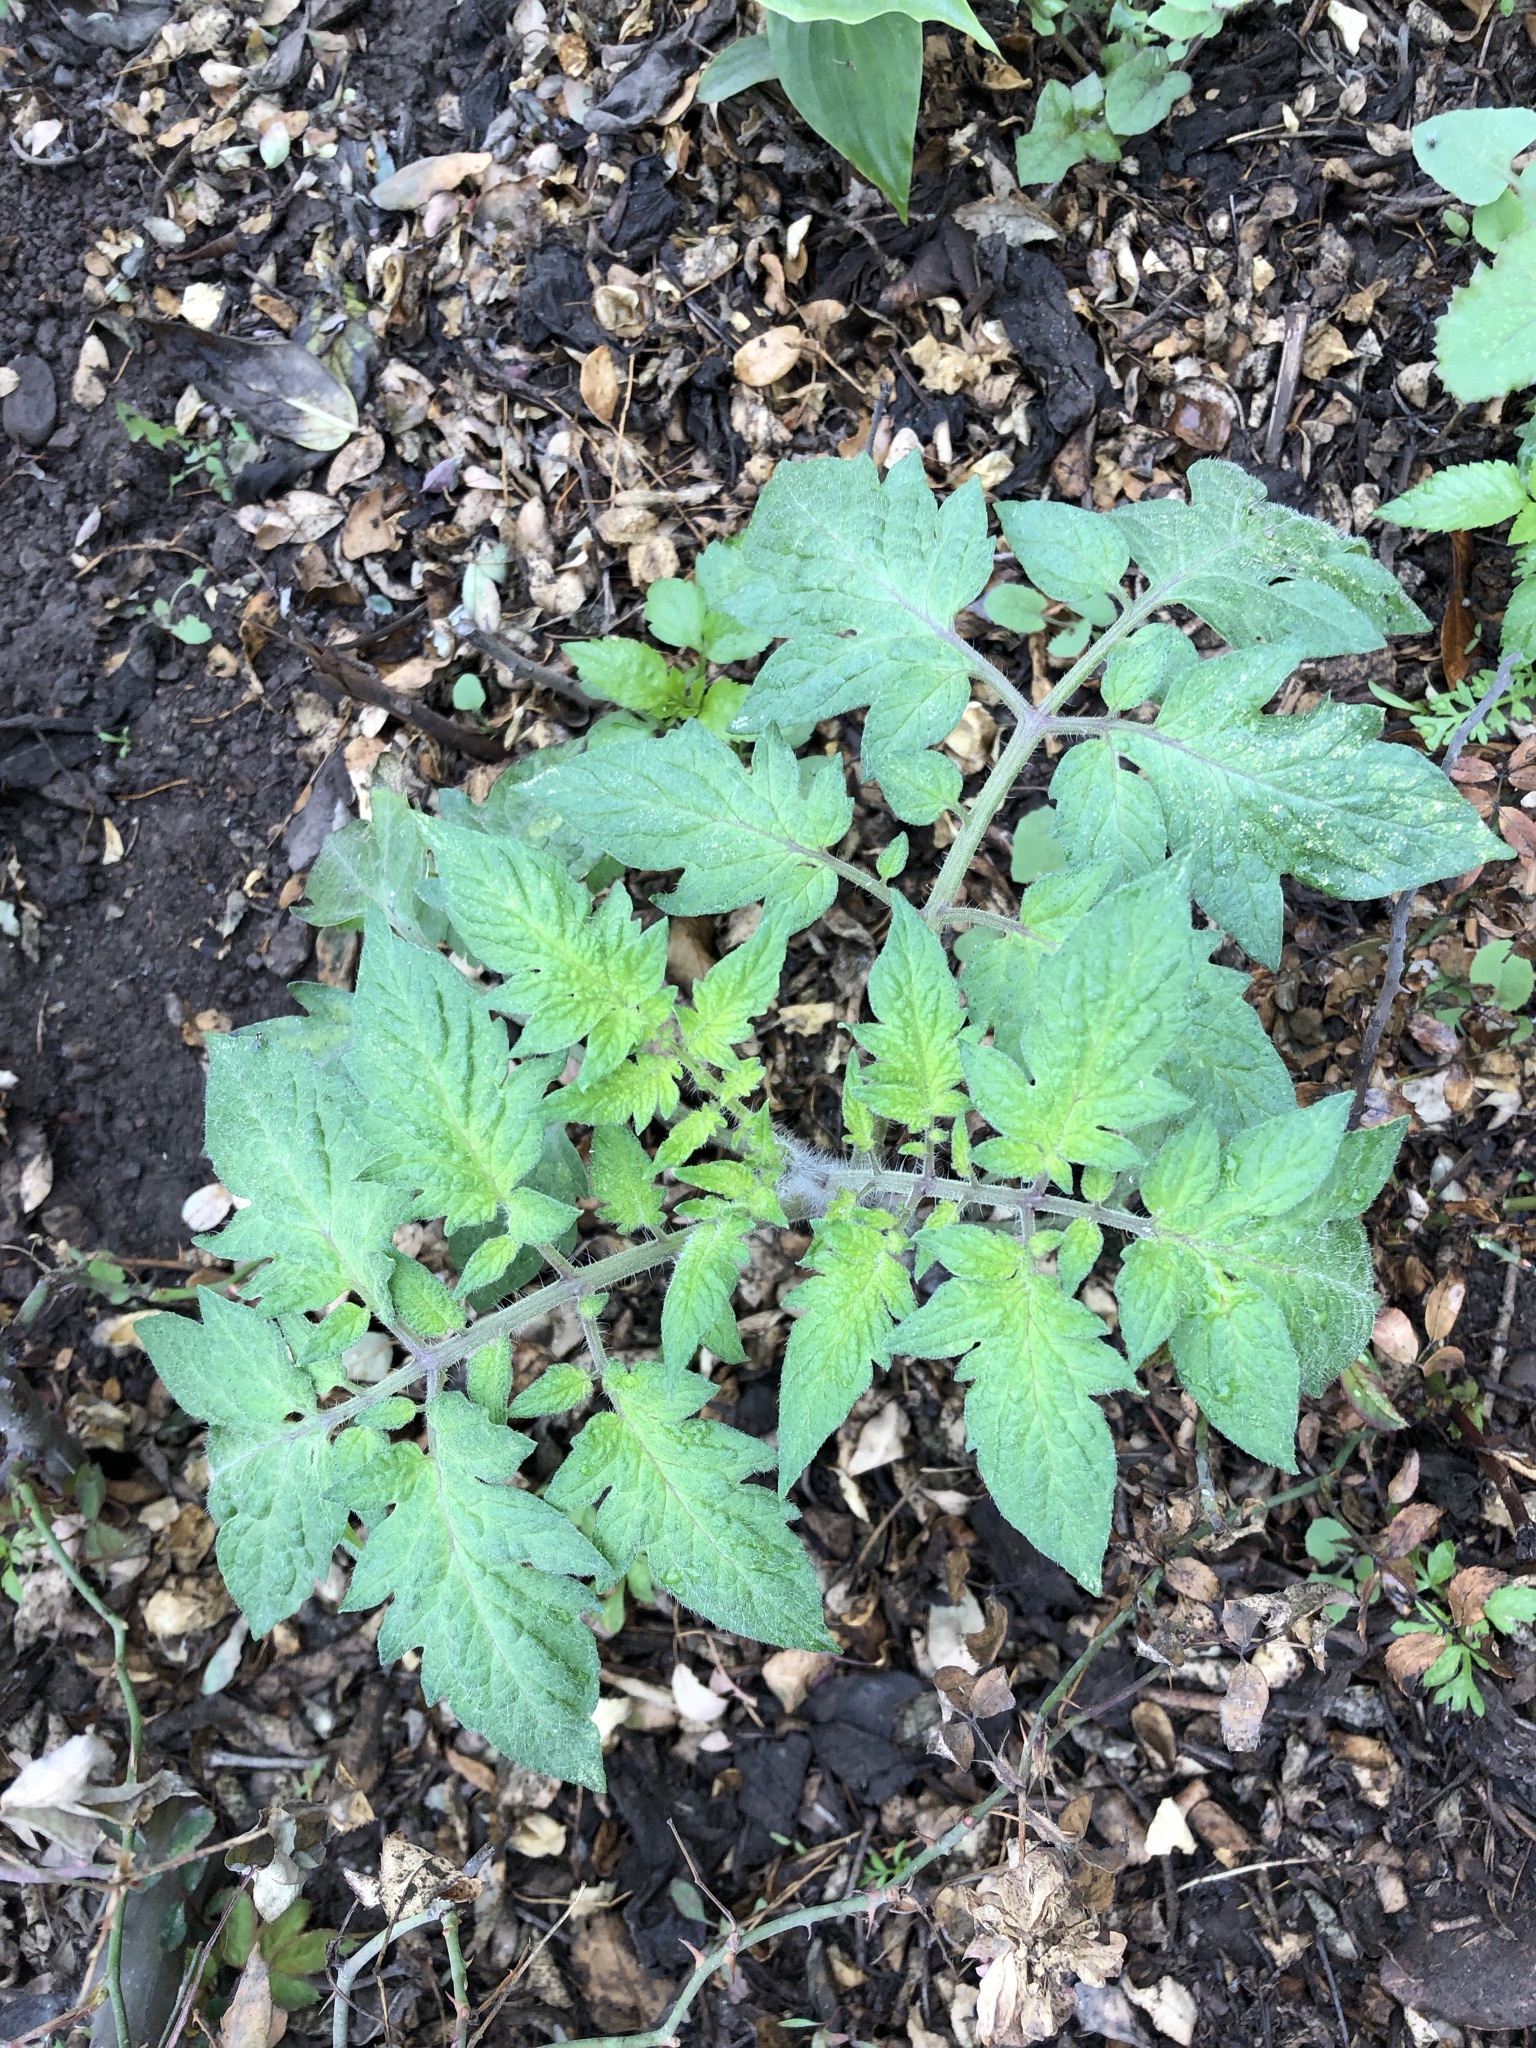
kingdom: Plantae
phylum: Tracheophyta
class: Magnoliopsida
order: Solanales
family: Solanaceae
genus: Solanum
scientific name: Solanum lycopersicum
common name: Garden tomato
